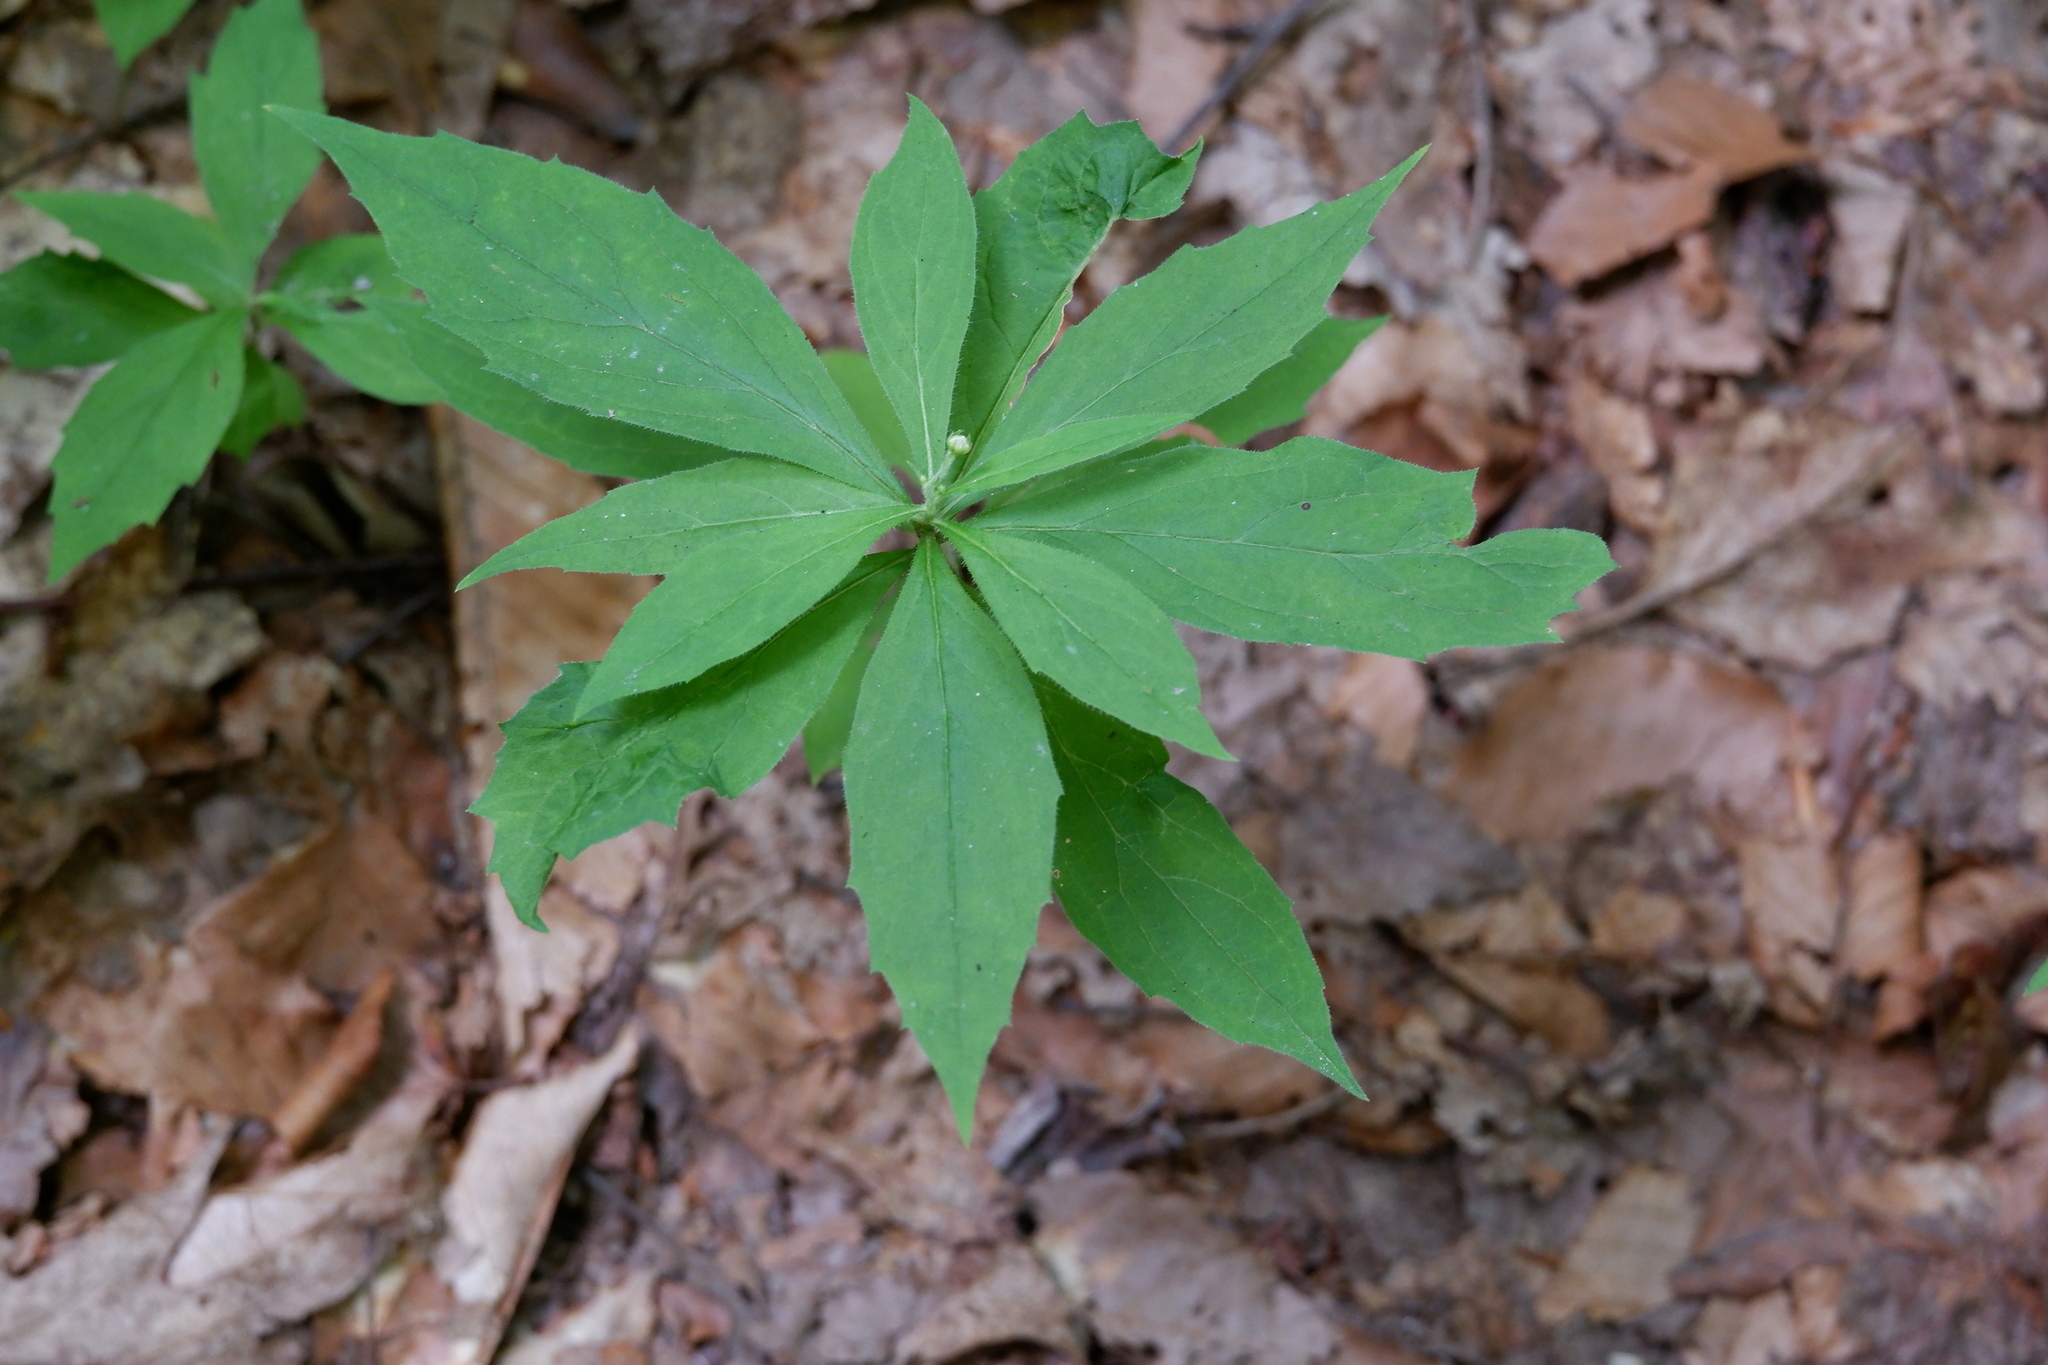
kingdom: Plantae
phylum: Tracheophyta
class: Magnoliopsida
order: Asterales
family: Asteraceae
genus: Oclemena
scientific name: Oclemena acuminata
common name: Mountain aster
